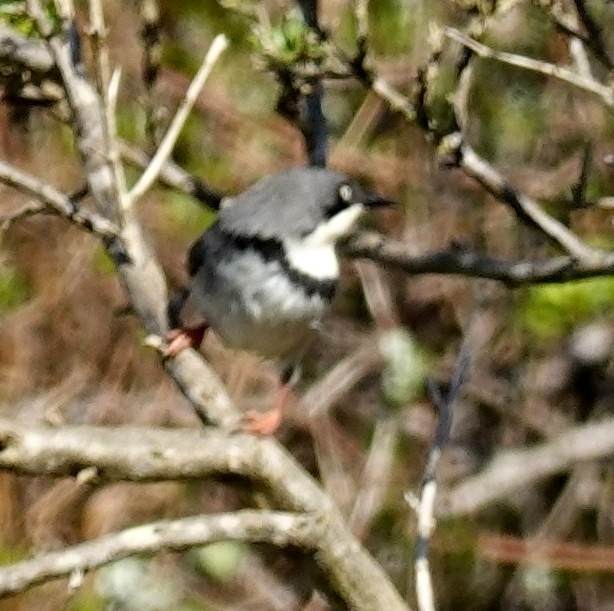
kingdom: Animalia
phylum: Chordata
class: Aves
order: Passeriformes
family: Cisticolidae
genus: Apalis
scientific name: Apalis thoracica
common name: Bar-throated apalis
